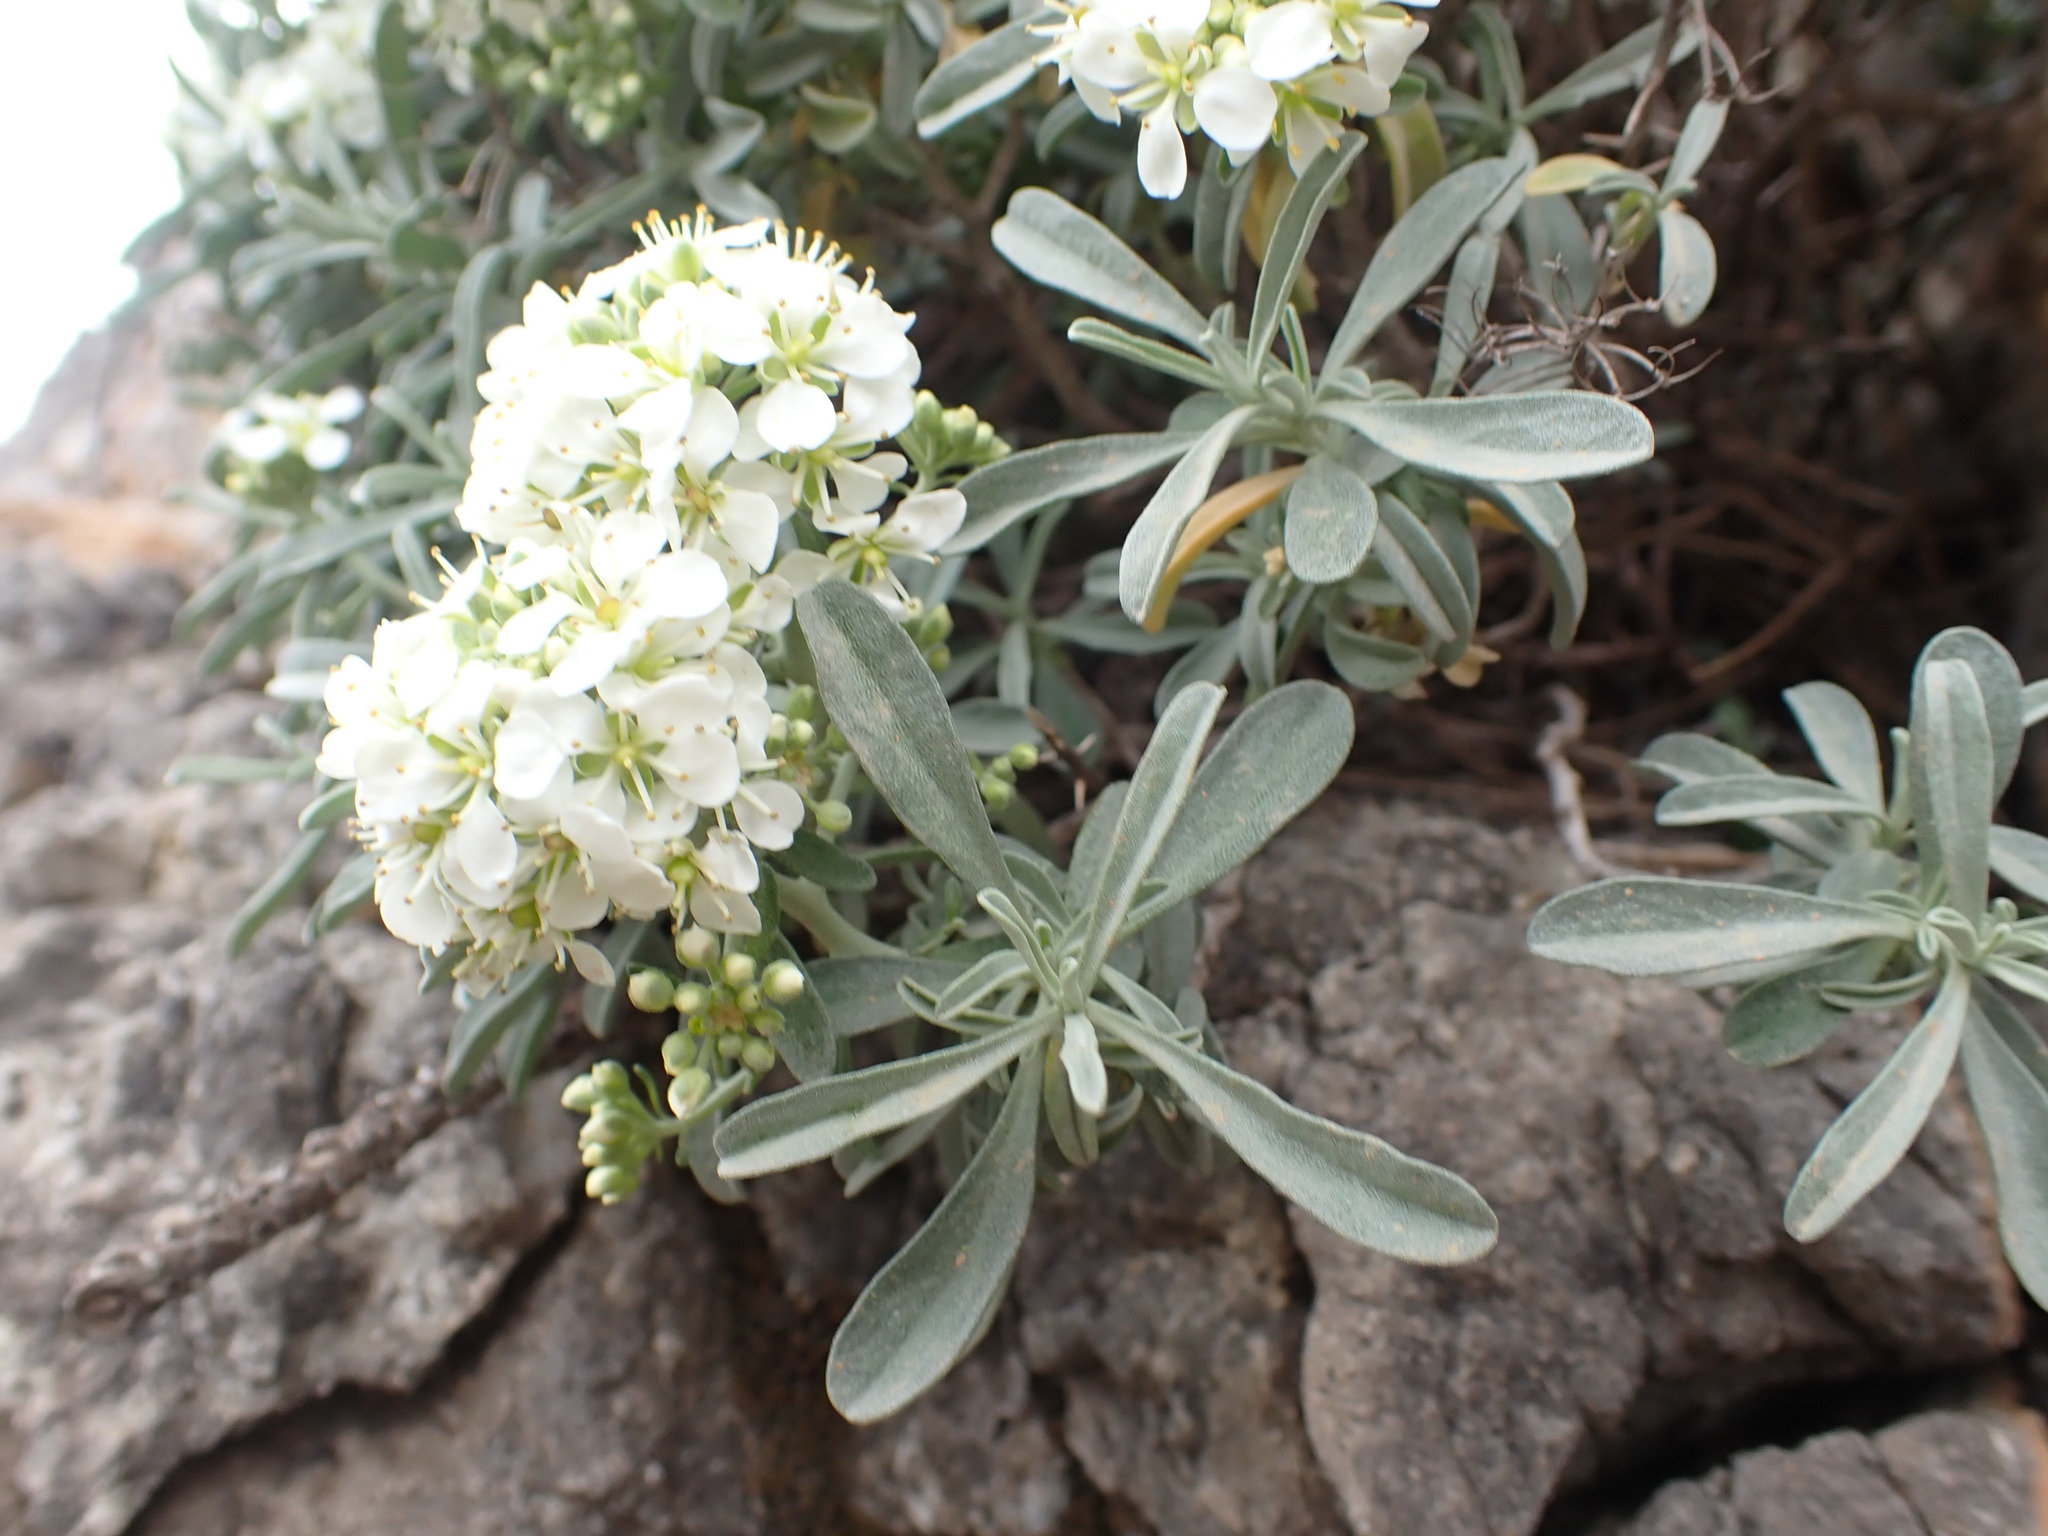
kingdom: Plantae
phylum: Tracheophyta
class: Magnoliopsida
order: Brassicales
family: Brassicaceae
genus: Hormathophylla
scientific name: Hormathophylla spinosa
